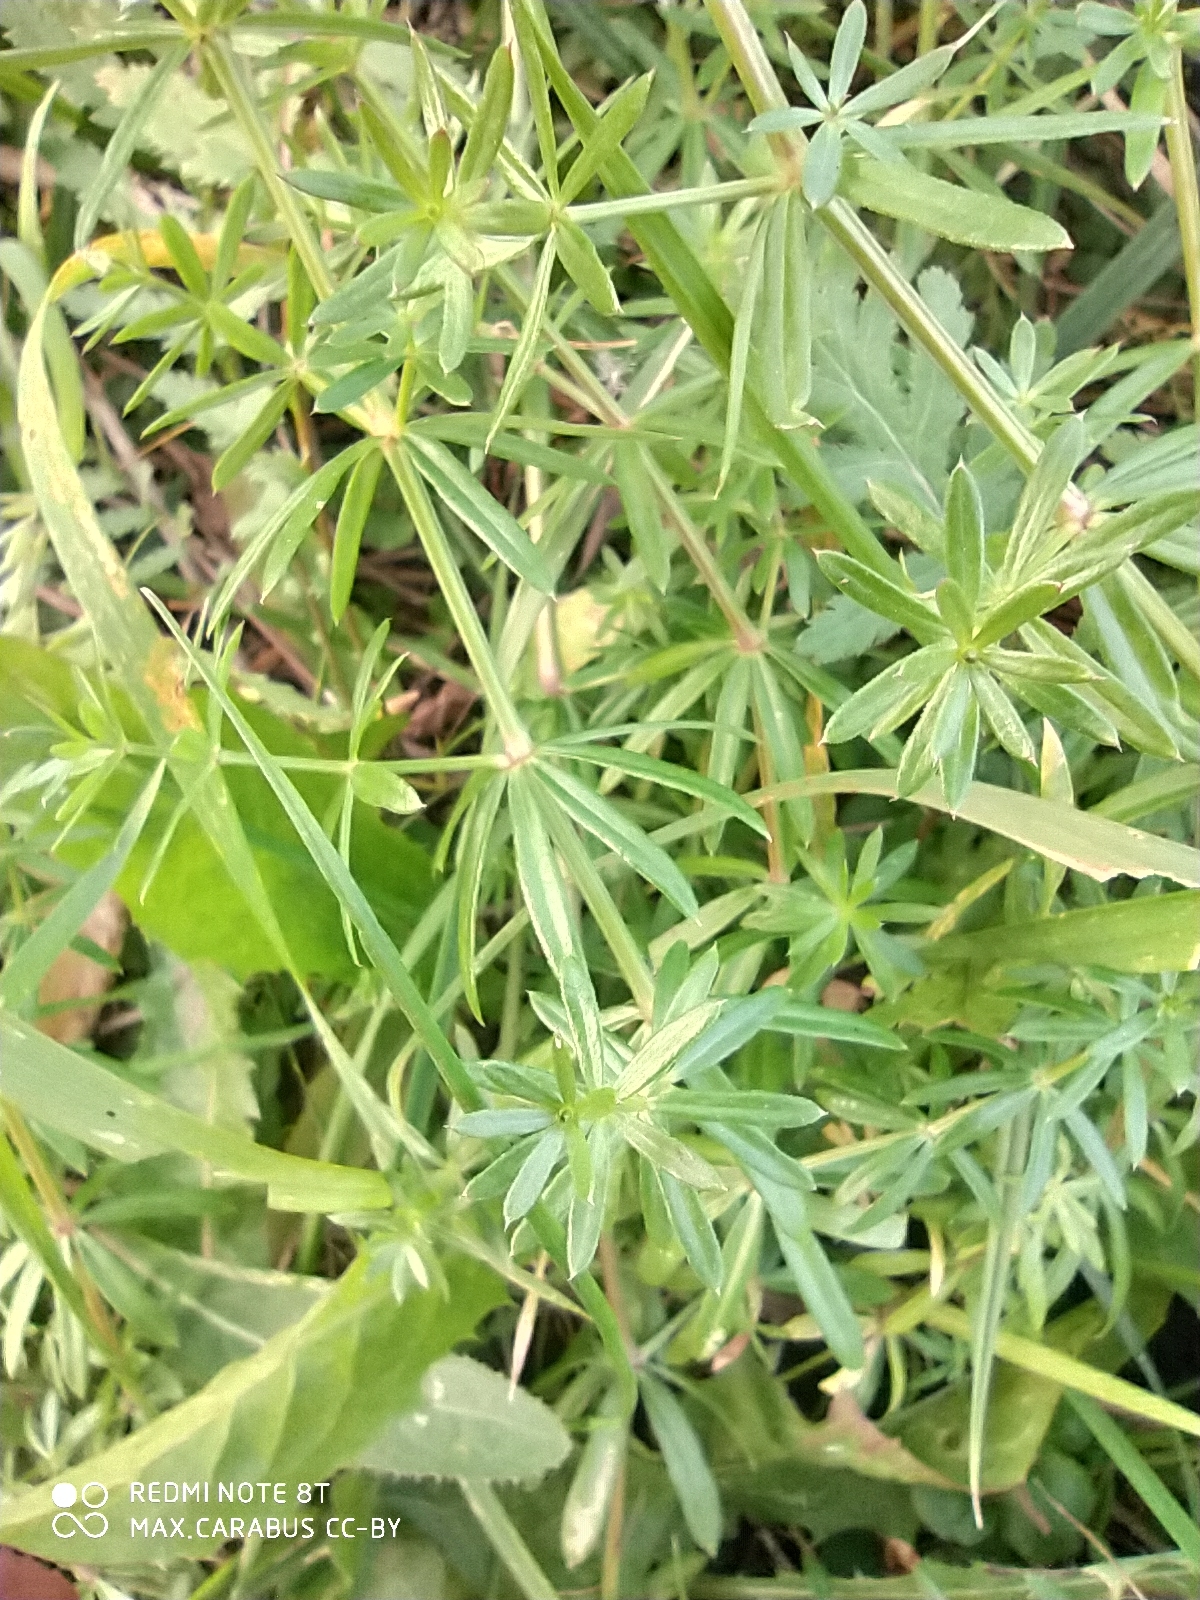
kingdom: Plantae
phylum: Tracheophyta
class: Magnoliopsida
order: Gentianales
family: Rubiaceae
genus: Galium
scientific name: Galium mollugo
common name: Hedge bedstraw
